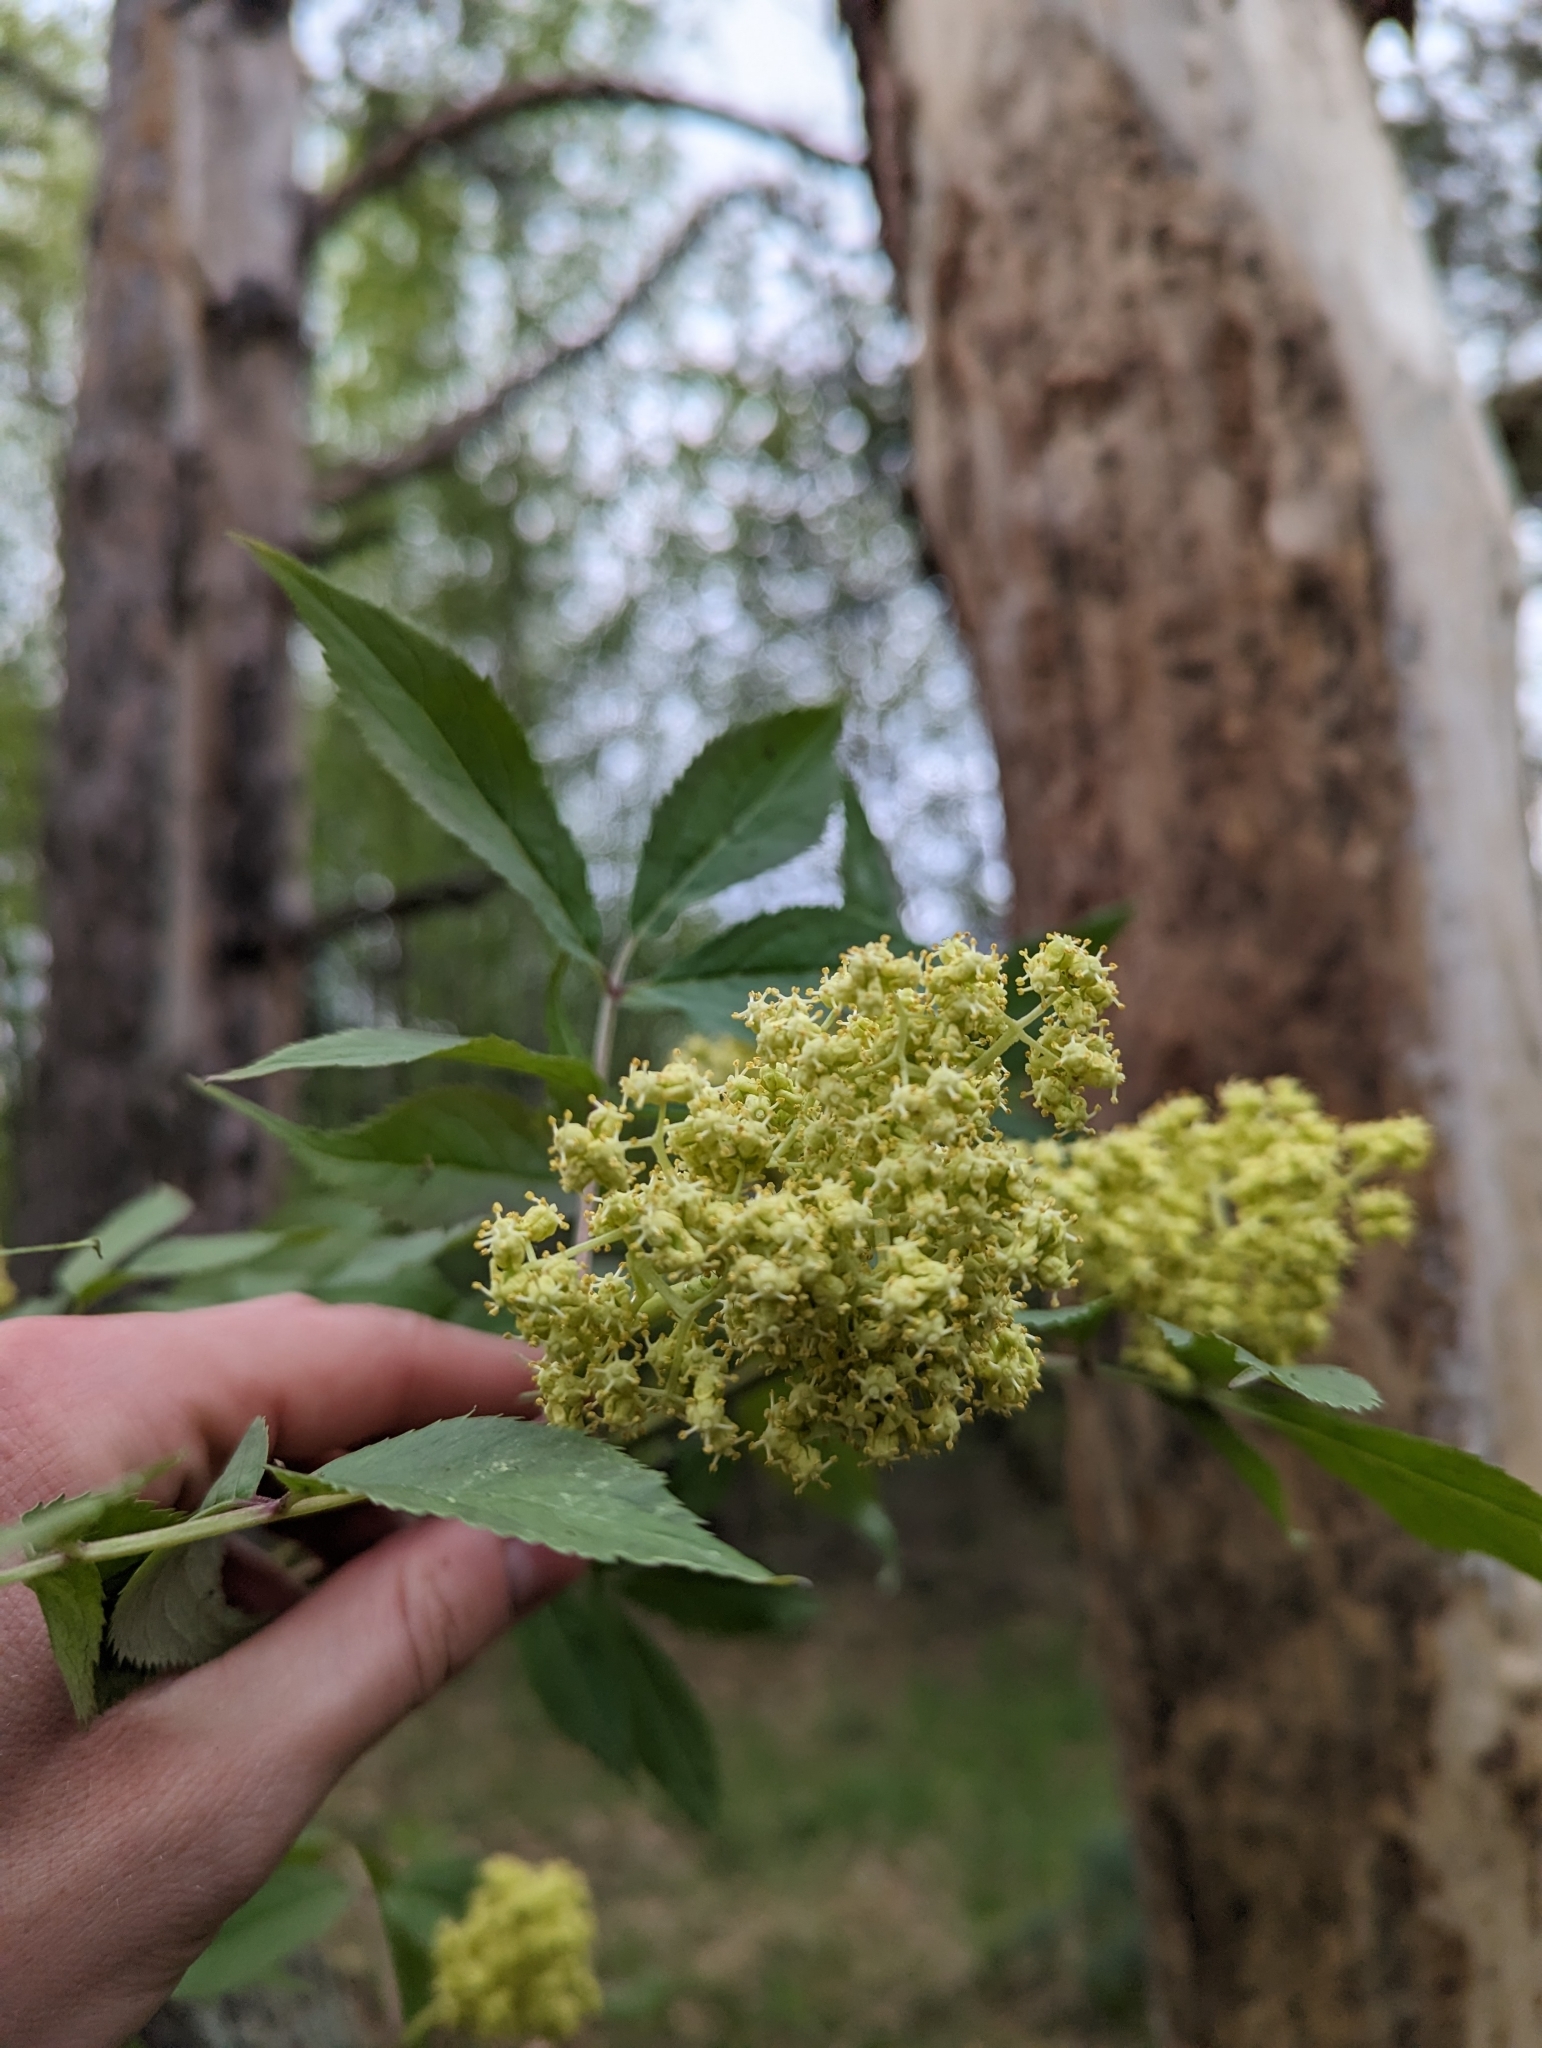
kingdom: Plantae
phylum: Tracheophyta
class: Magnoliopsida
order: Dipsacales
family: Viburnaceae
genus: Sambucus
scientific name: Sambucus racemosa
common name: Red-berried elder
